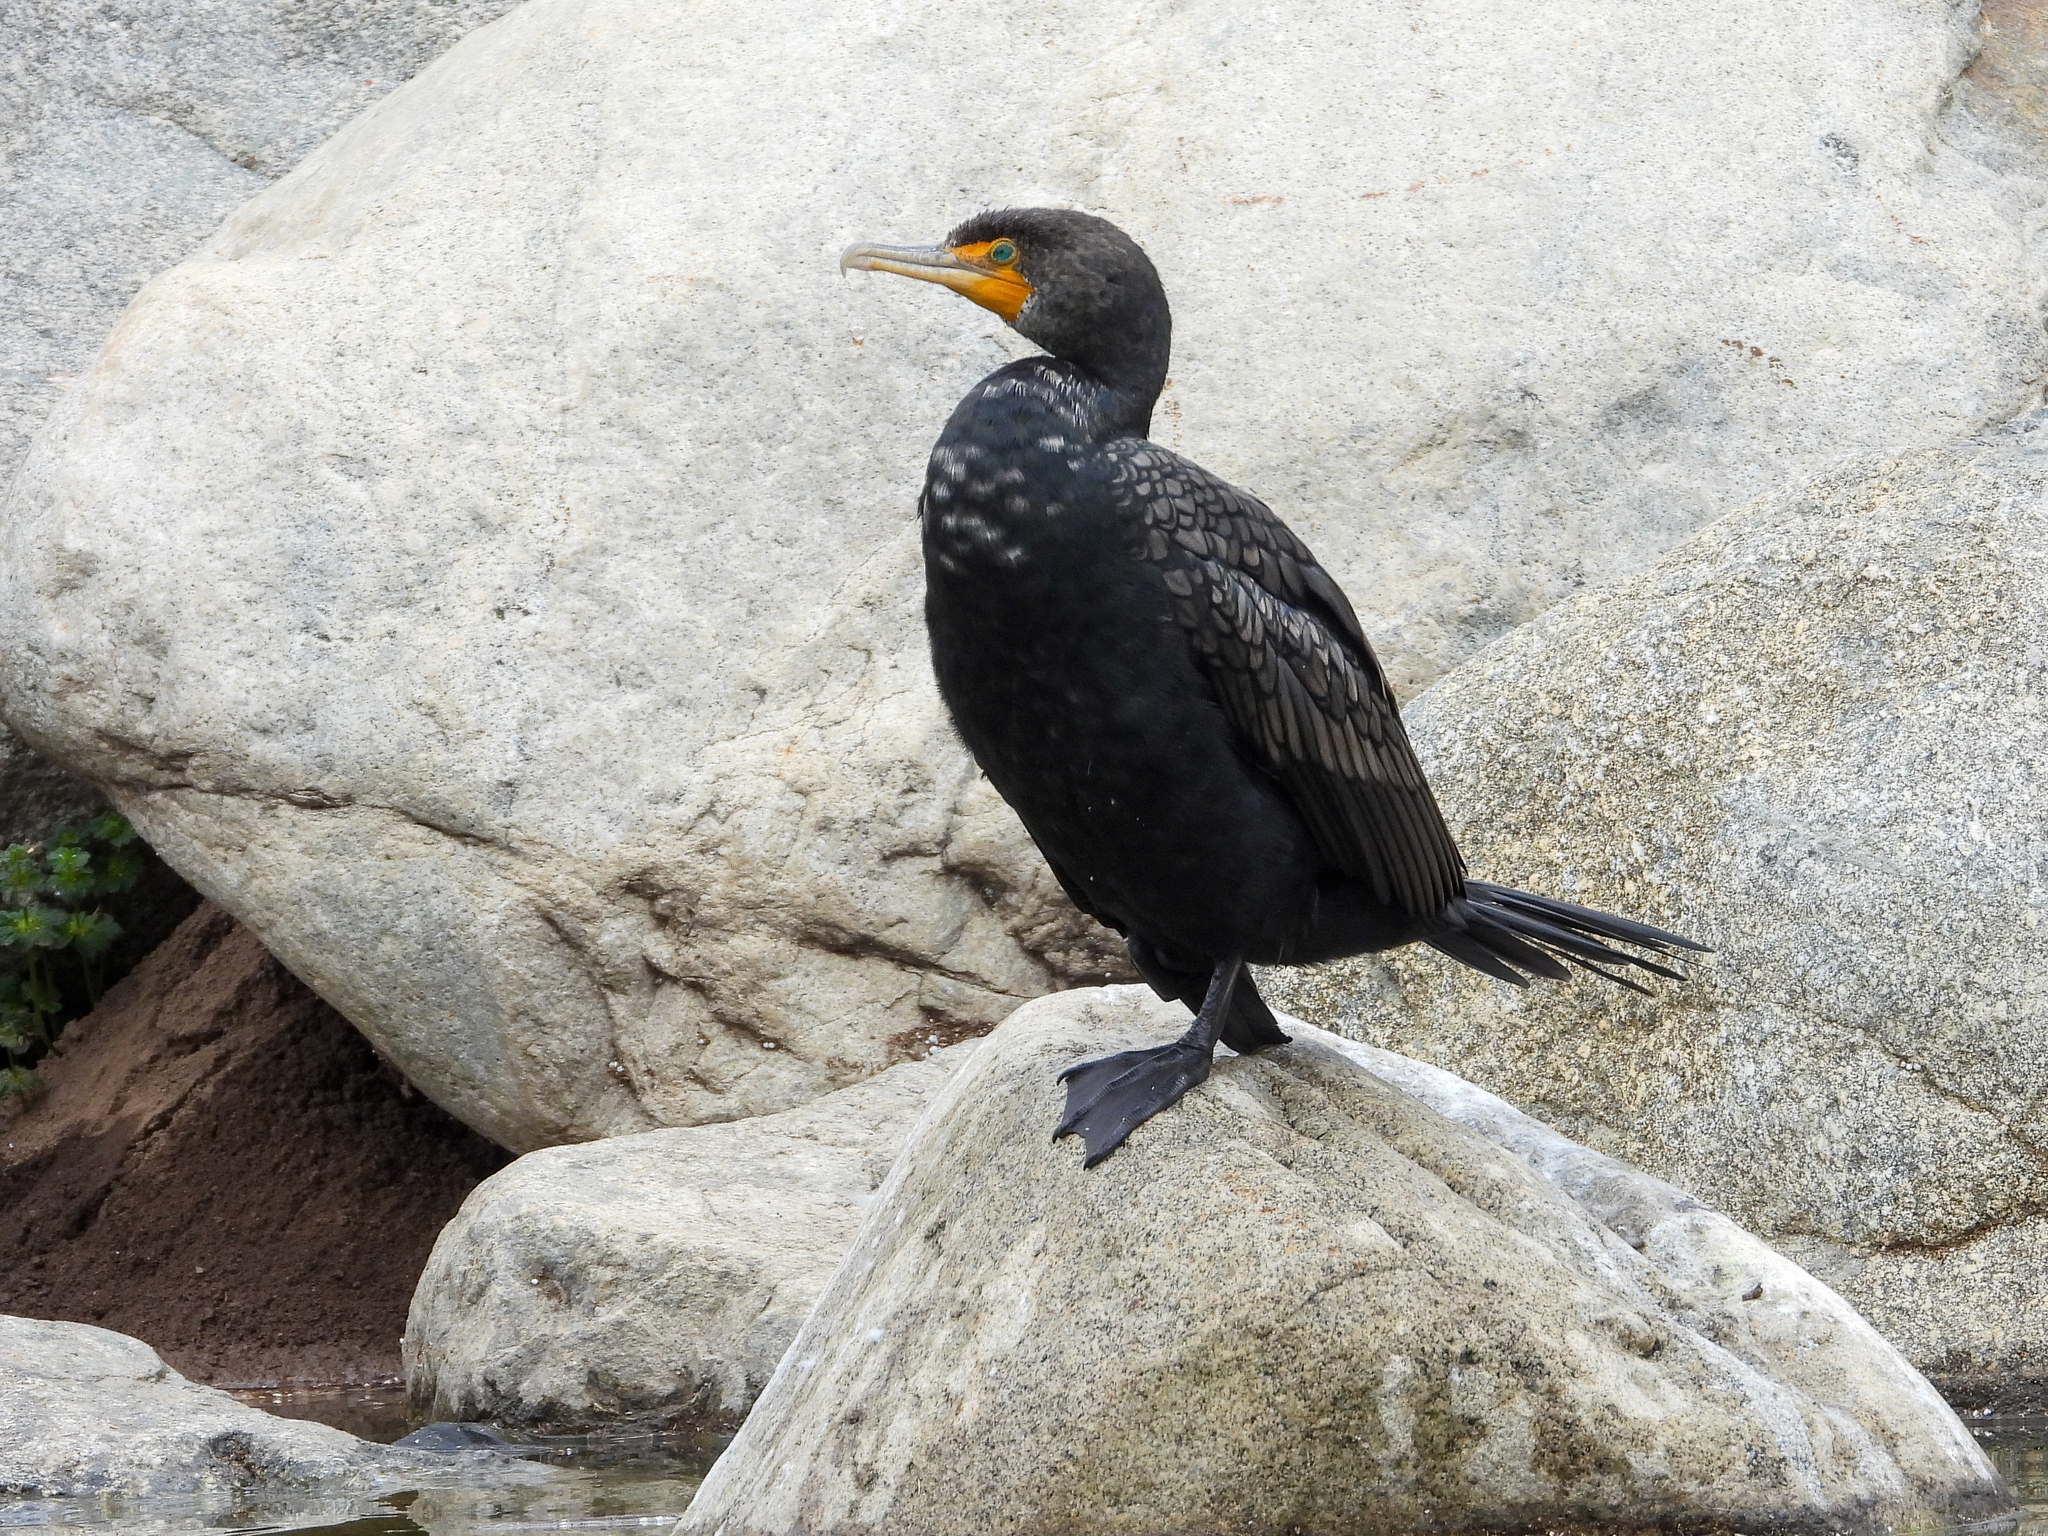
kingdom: Animalia
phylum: Chordata
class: Aves
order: Suliformes
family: Phalacrocoracidae
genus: Phalacrocorax
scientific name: Phalacrocorax auritus
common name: Double-crested cormorant
